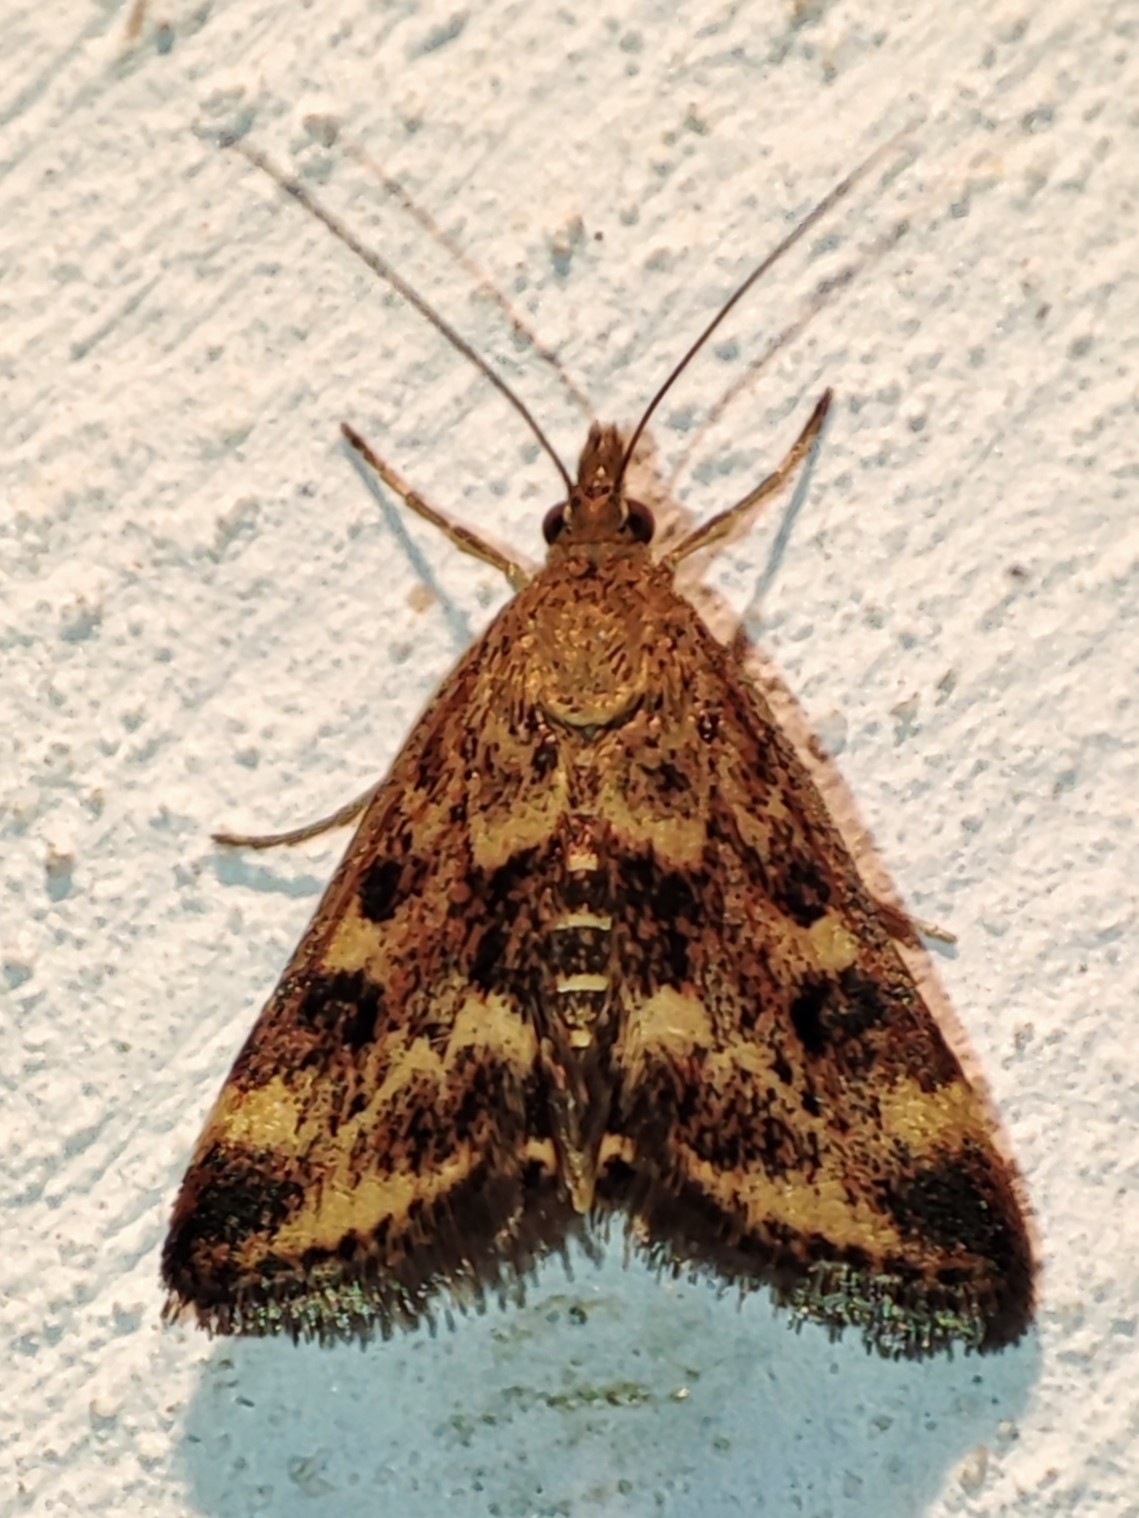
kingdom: Animalia
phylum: Arthropoda
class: Insecta
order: Lepidoptera
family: Crambidae
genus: Pyrausta
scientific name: Pyrausta despicata
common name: Straw-barred pearl
